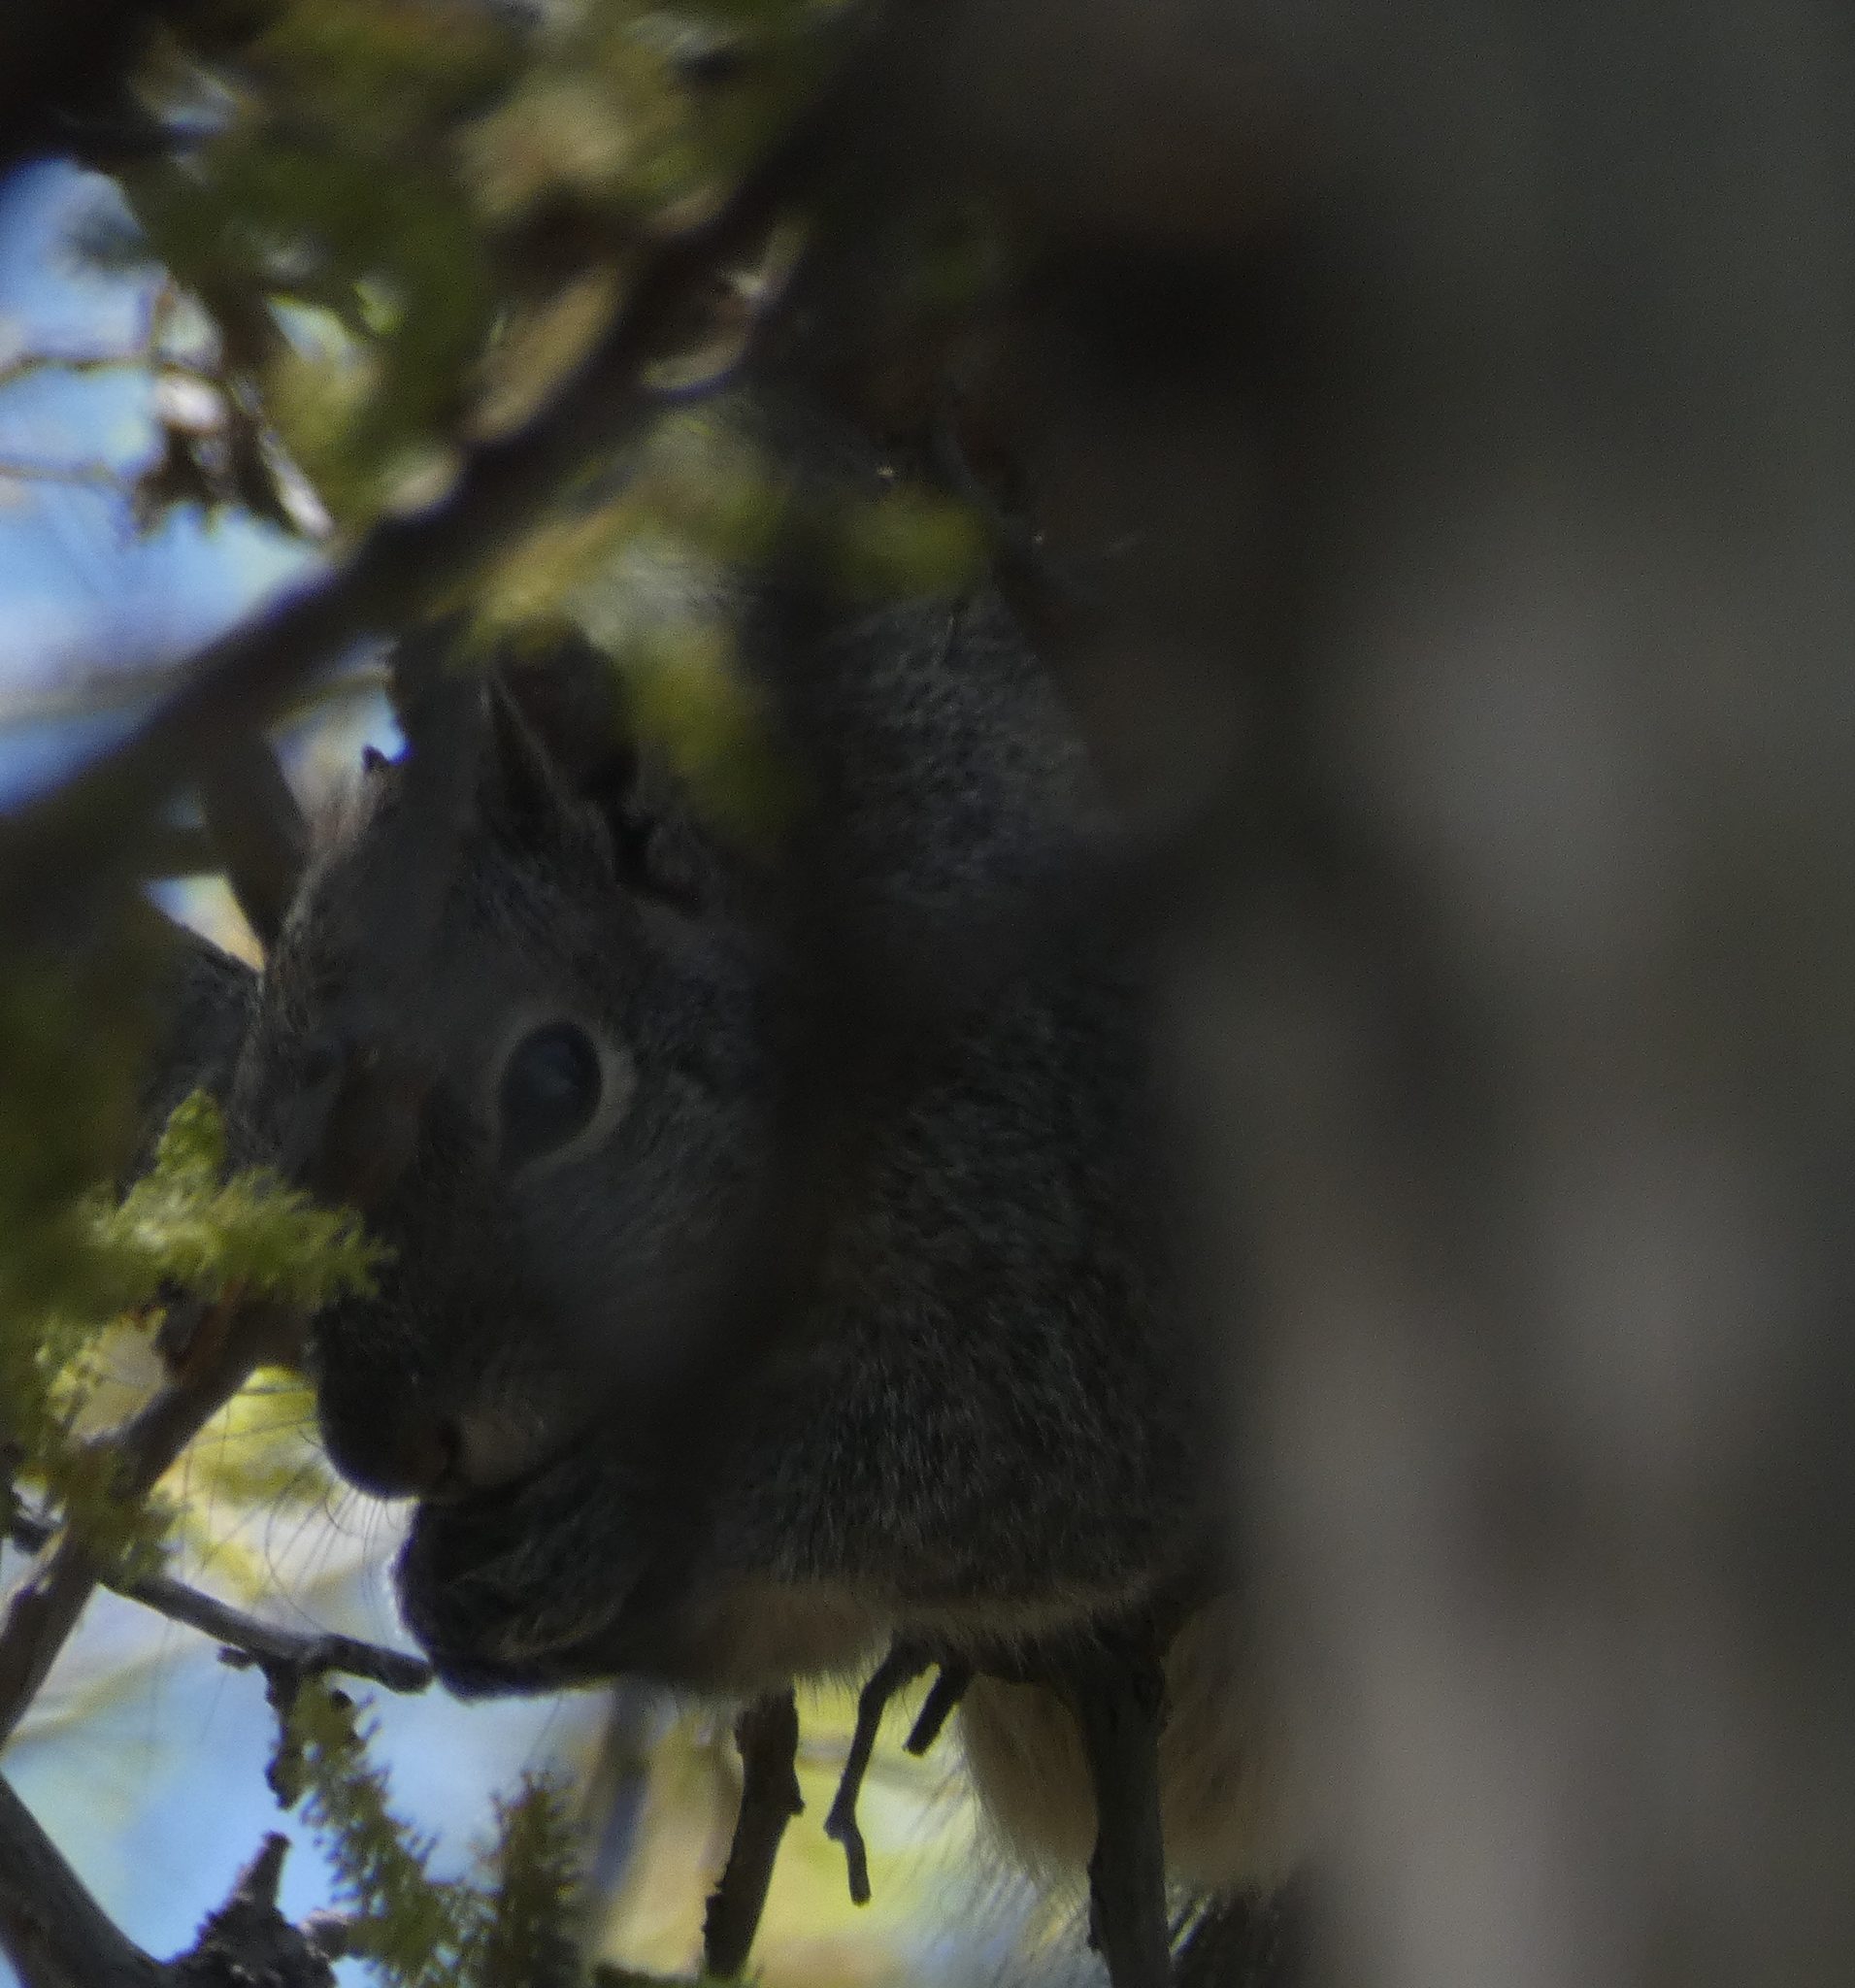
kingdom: Animalia
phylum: Chordata
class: Mammalia
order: Rodentia
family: Sciuridae
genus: Sciurus
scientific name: Sciurus arizonensis
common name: Arizona gray squirrel
